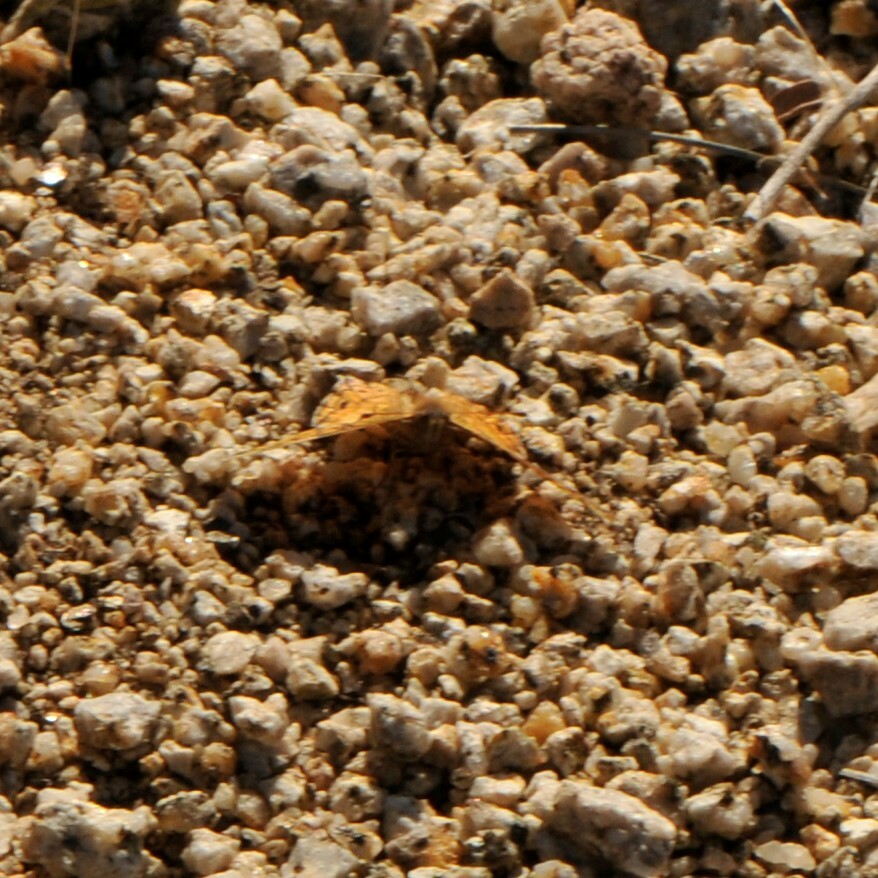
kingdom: Animalia
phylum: Arthropoda
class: Insecta
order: Lepidoptera
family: Nymphalidae
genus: Euptoieta
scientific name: Euptoieta claudia
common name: Variegated fritillary
